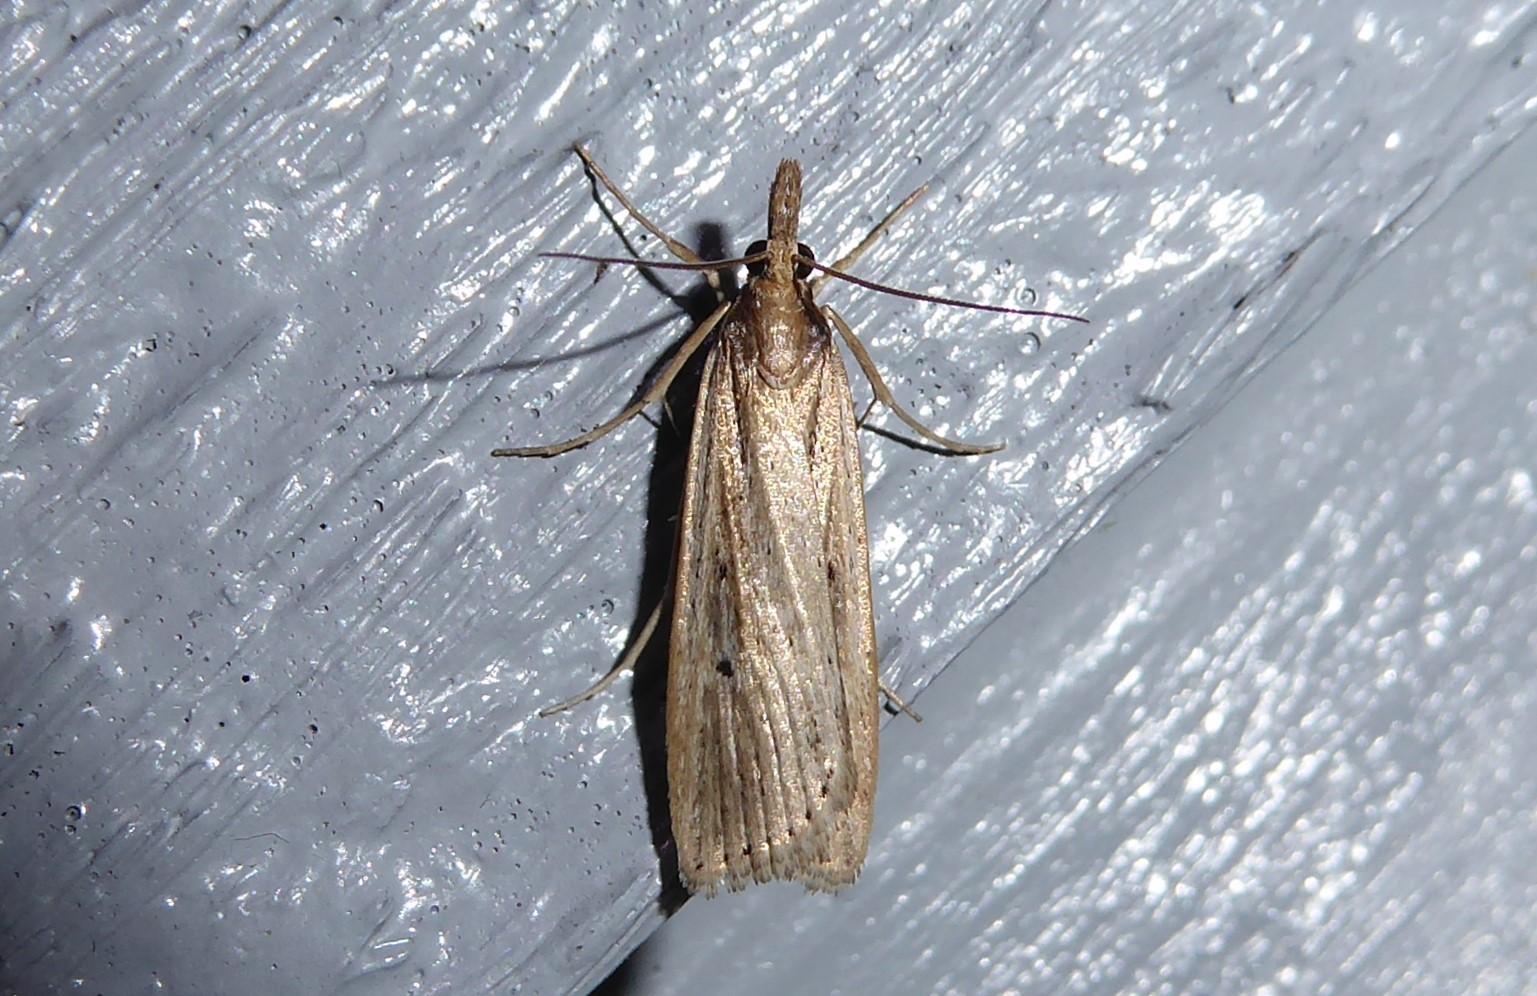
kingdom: Animalia
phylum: Arthropoda
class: Insecta
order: Lepidoptera
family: Crambidae
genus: Eudonia
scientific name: Eudonia sabulosella
